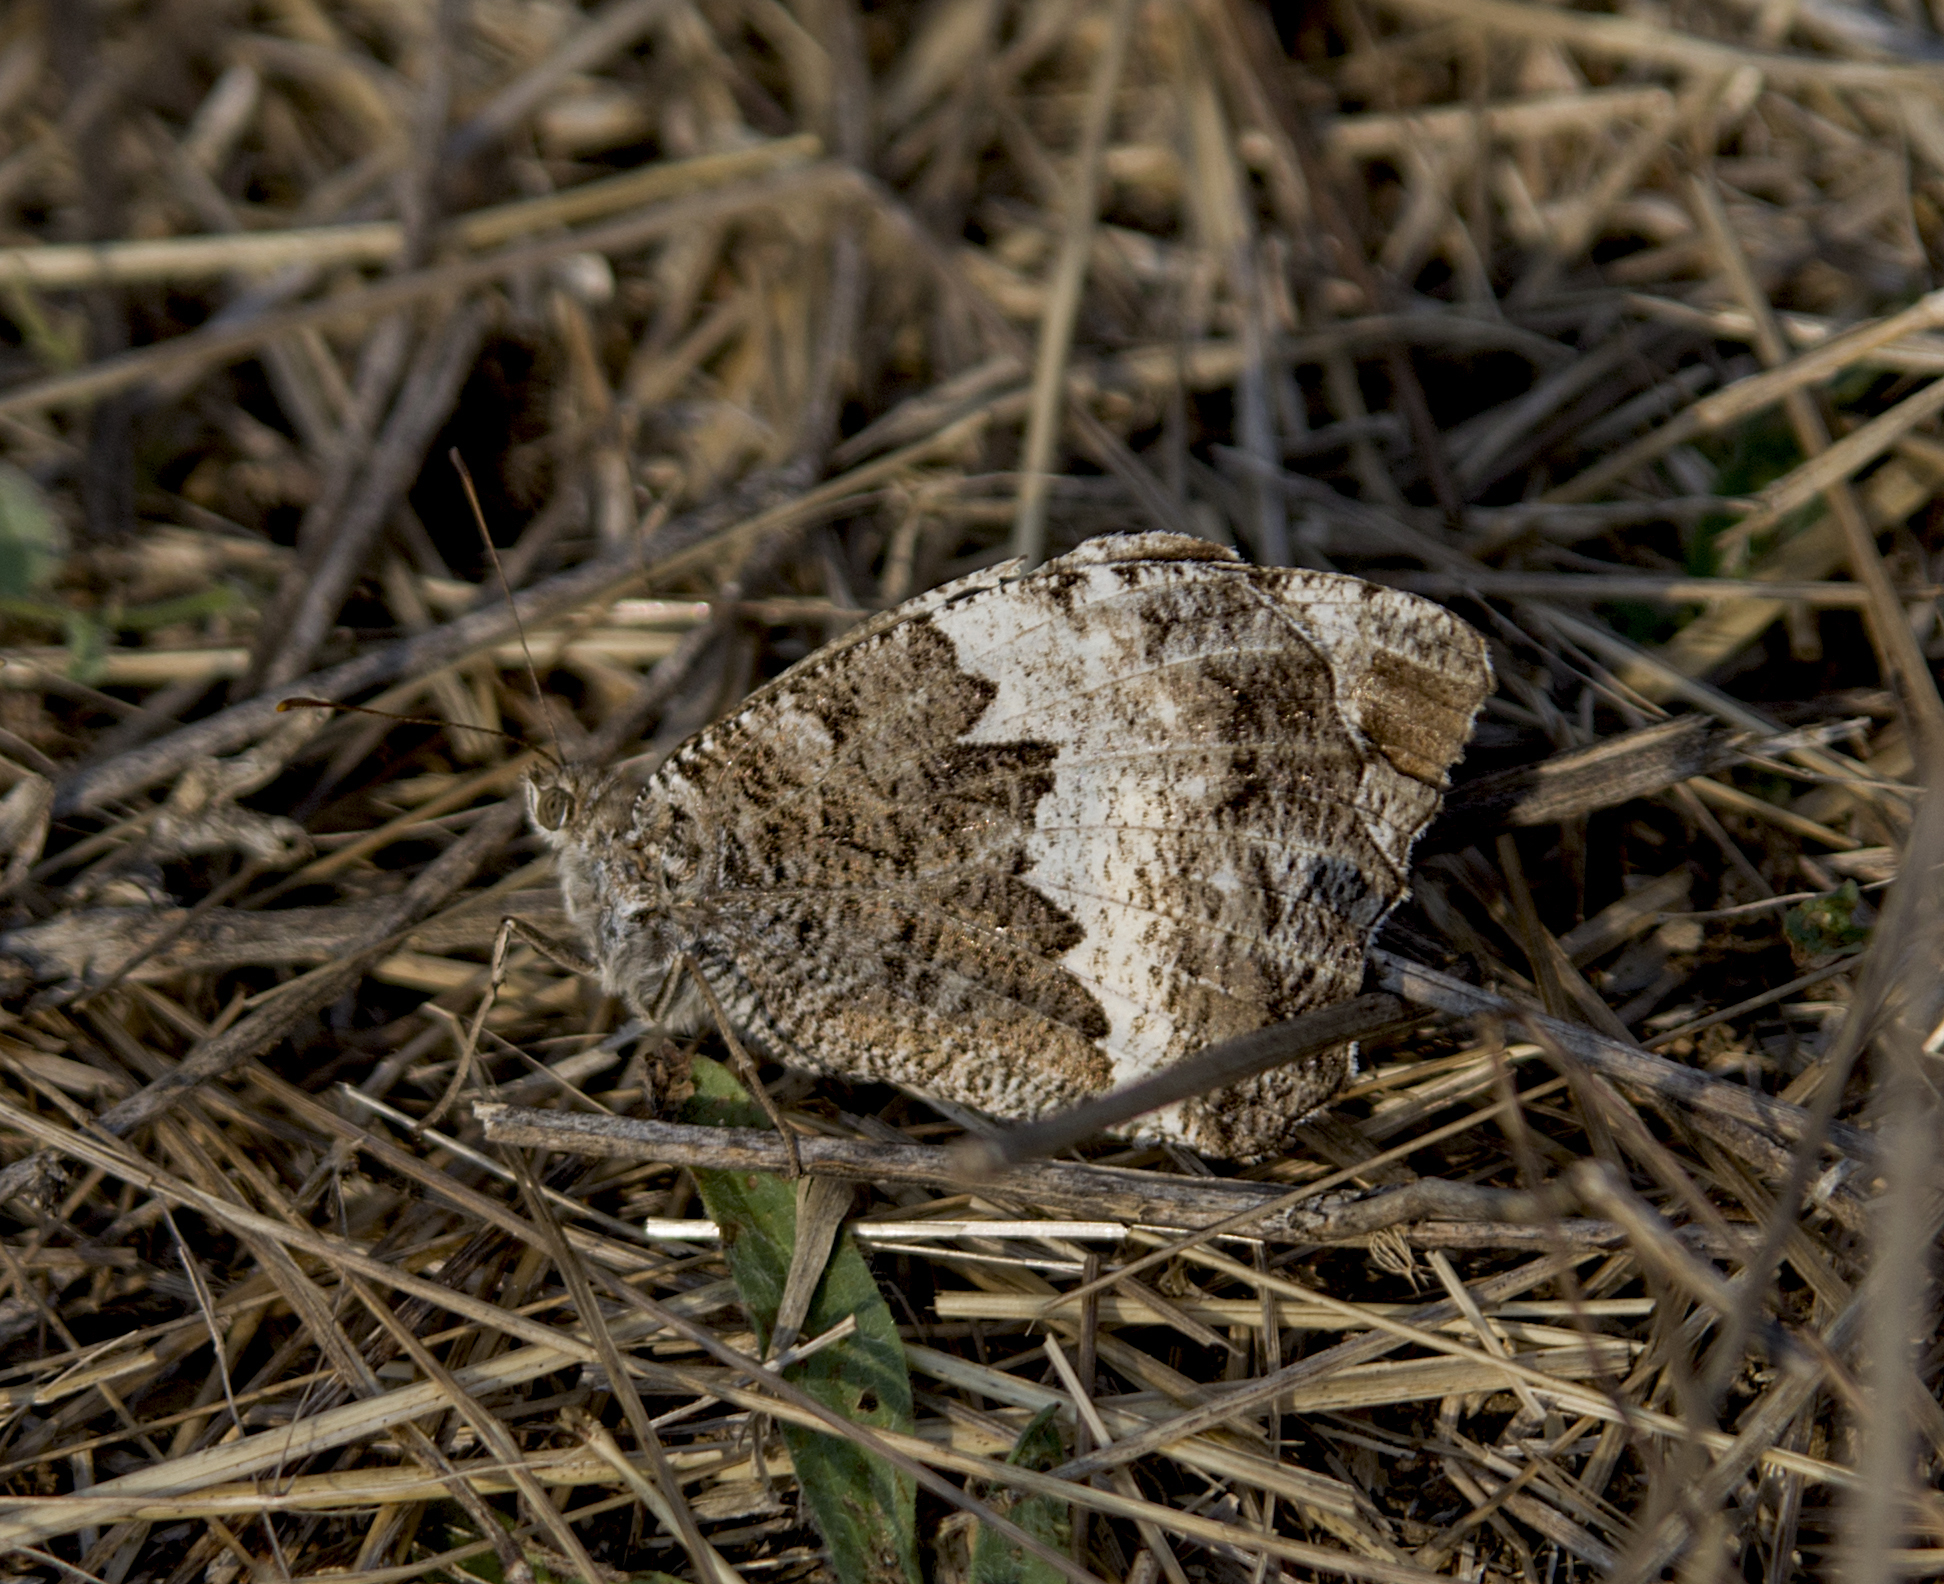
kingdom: Animalia
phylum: Arthropoda
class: Insecta
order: Lepidoptera
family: Lycaenidae
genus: Loweia
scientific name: Loweia tityrus
